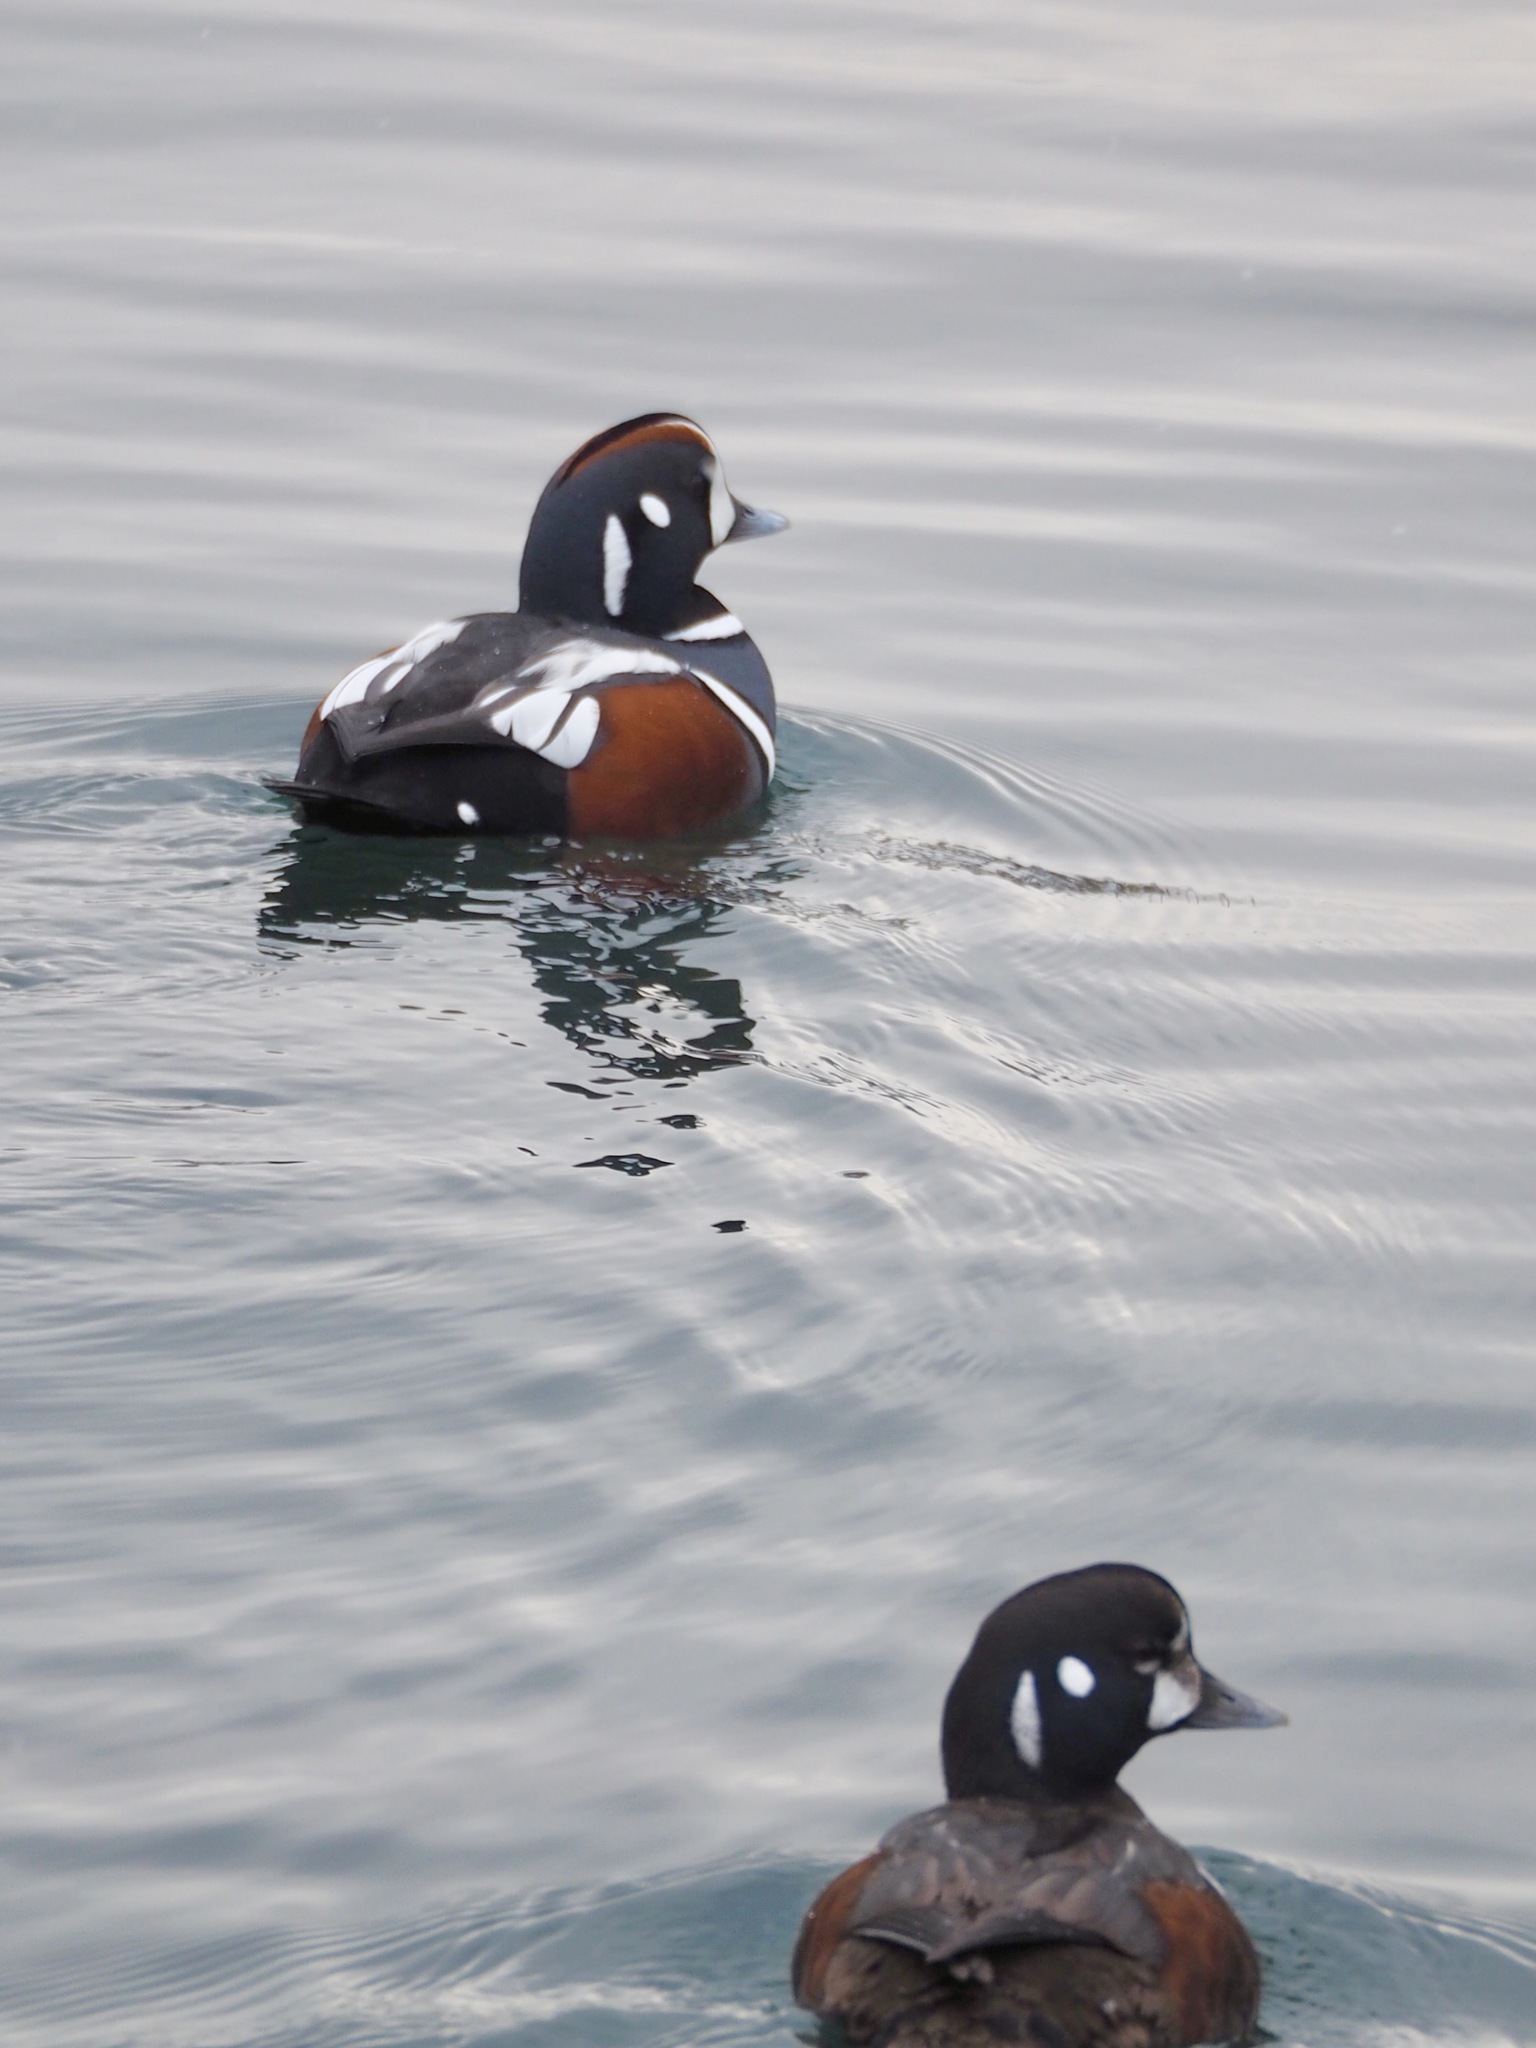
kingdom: Animalia
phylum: Chordata
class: Aves
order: Anseriformes
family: Anatidae
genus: Histrionicus
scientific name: Histrionicus histrionicus
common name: Harlequin duck
